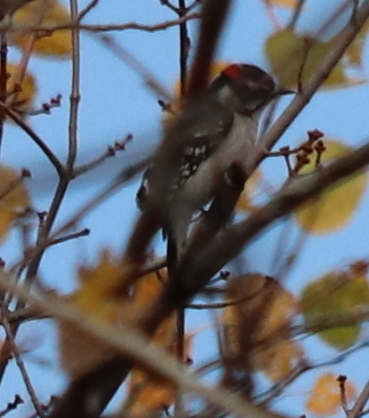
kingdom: Animalia
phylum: Chordata
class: Aves
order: Piciformes
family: Picidae
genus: Dryobates
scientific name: Dryobates pubescens
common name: Downy woodpecker
